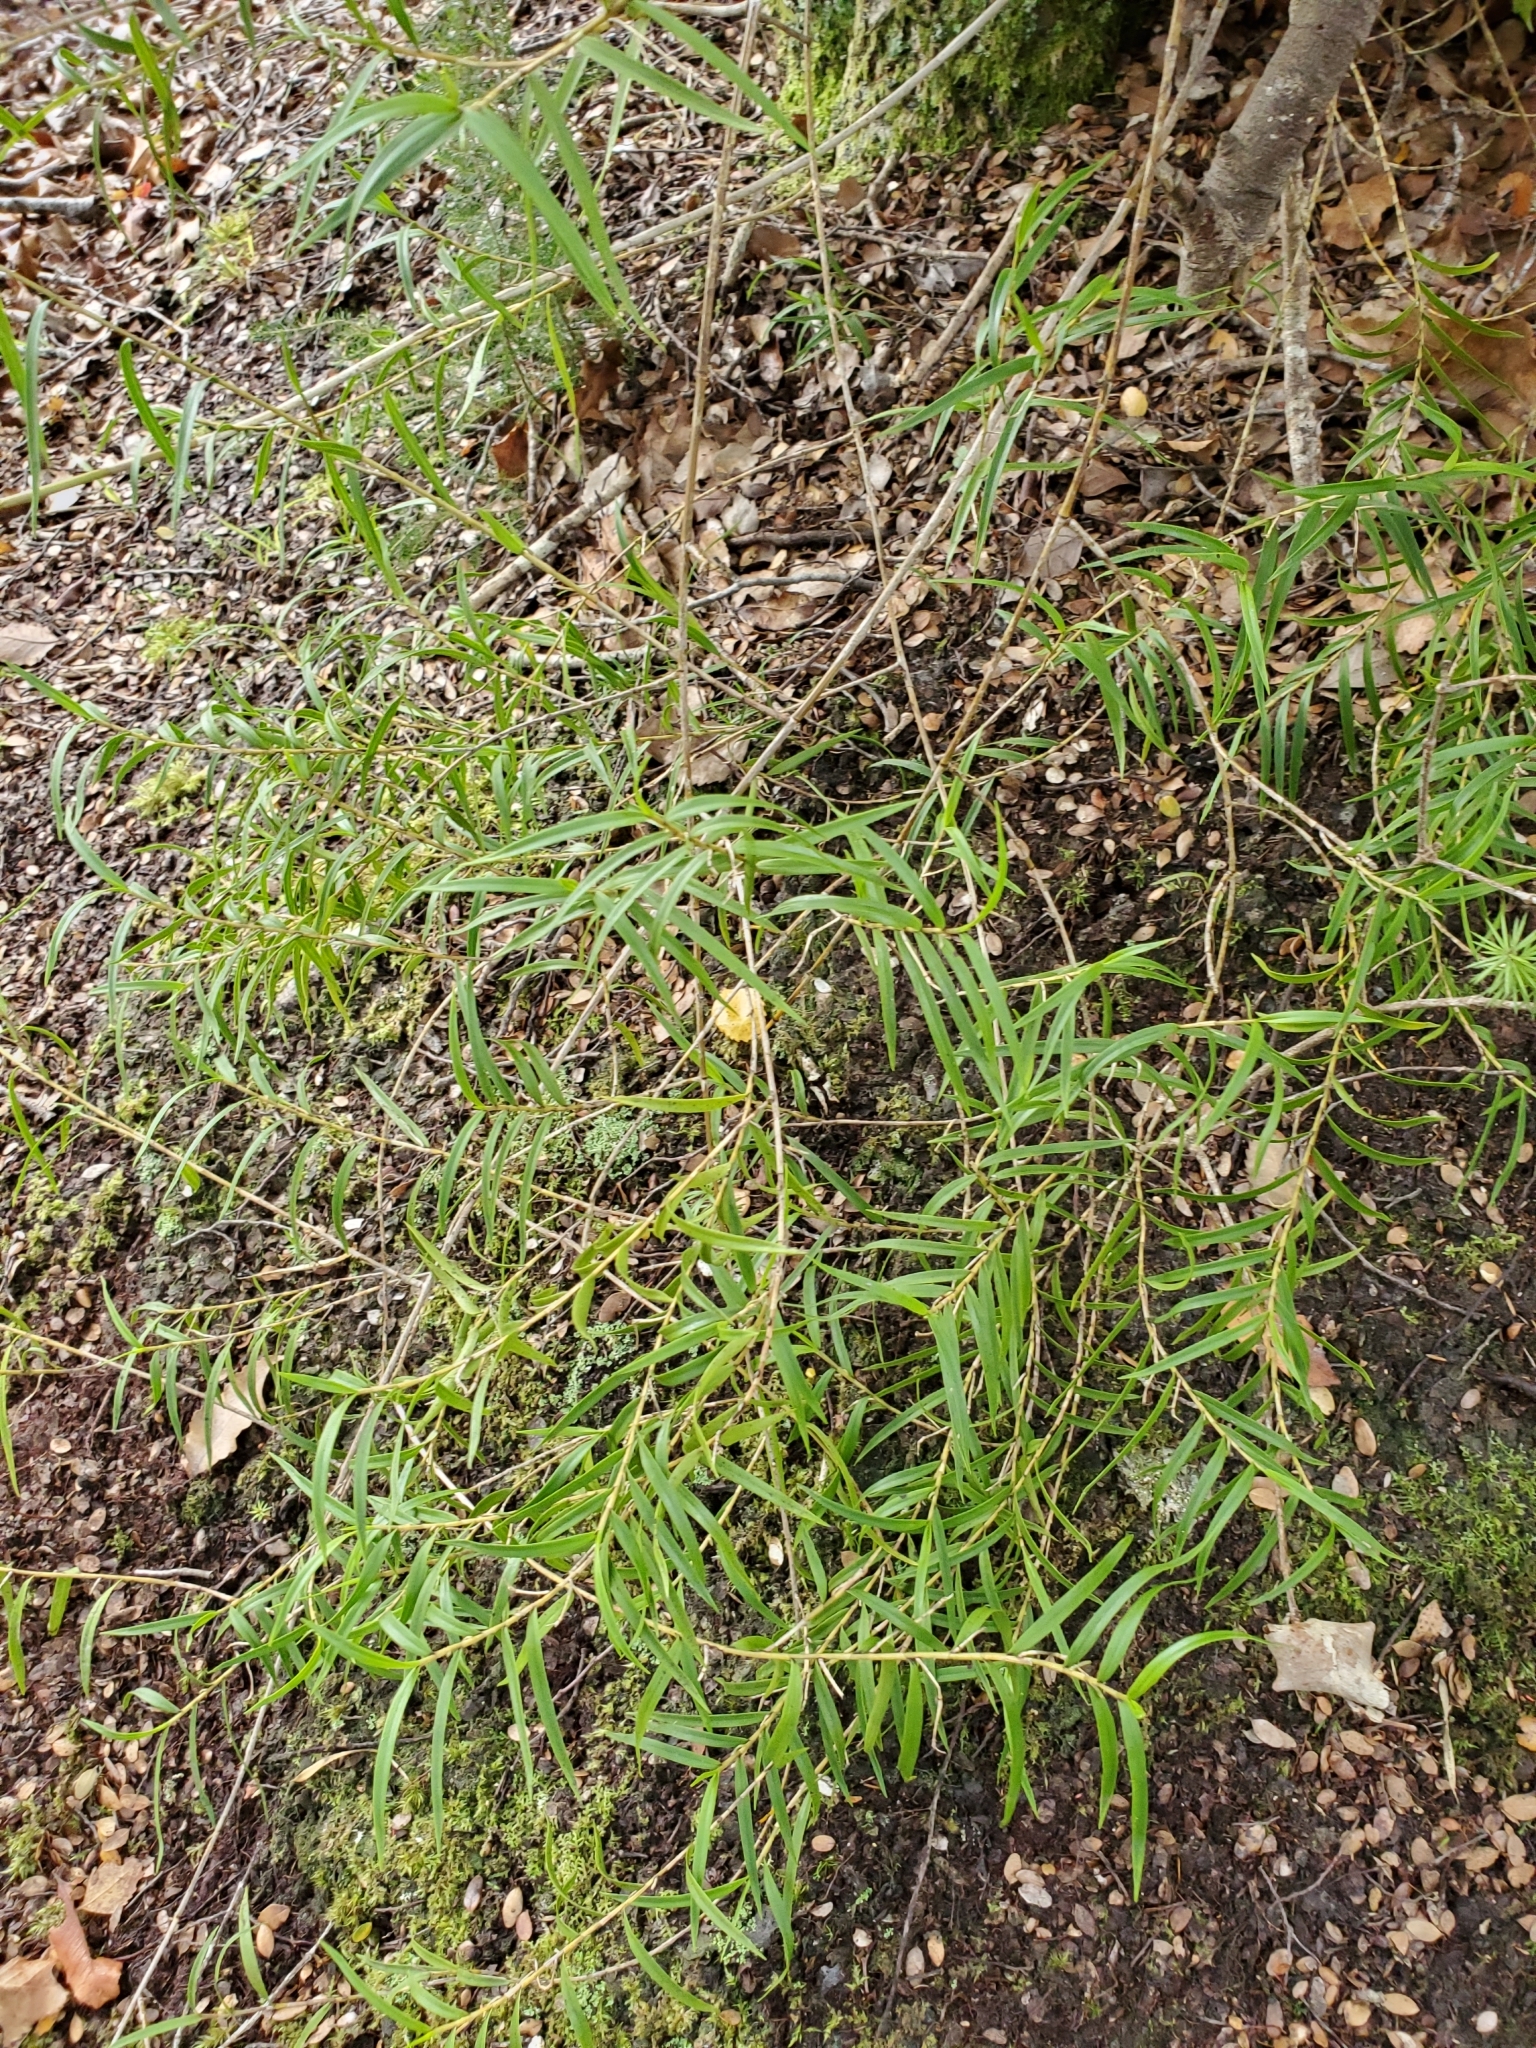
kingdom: Plantae
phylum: Tracheophyta
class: Liliopsida
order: Asparagales
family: Orchidaceae
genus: Dendrobium
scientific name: Dendrobium cunninghamii
